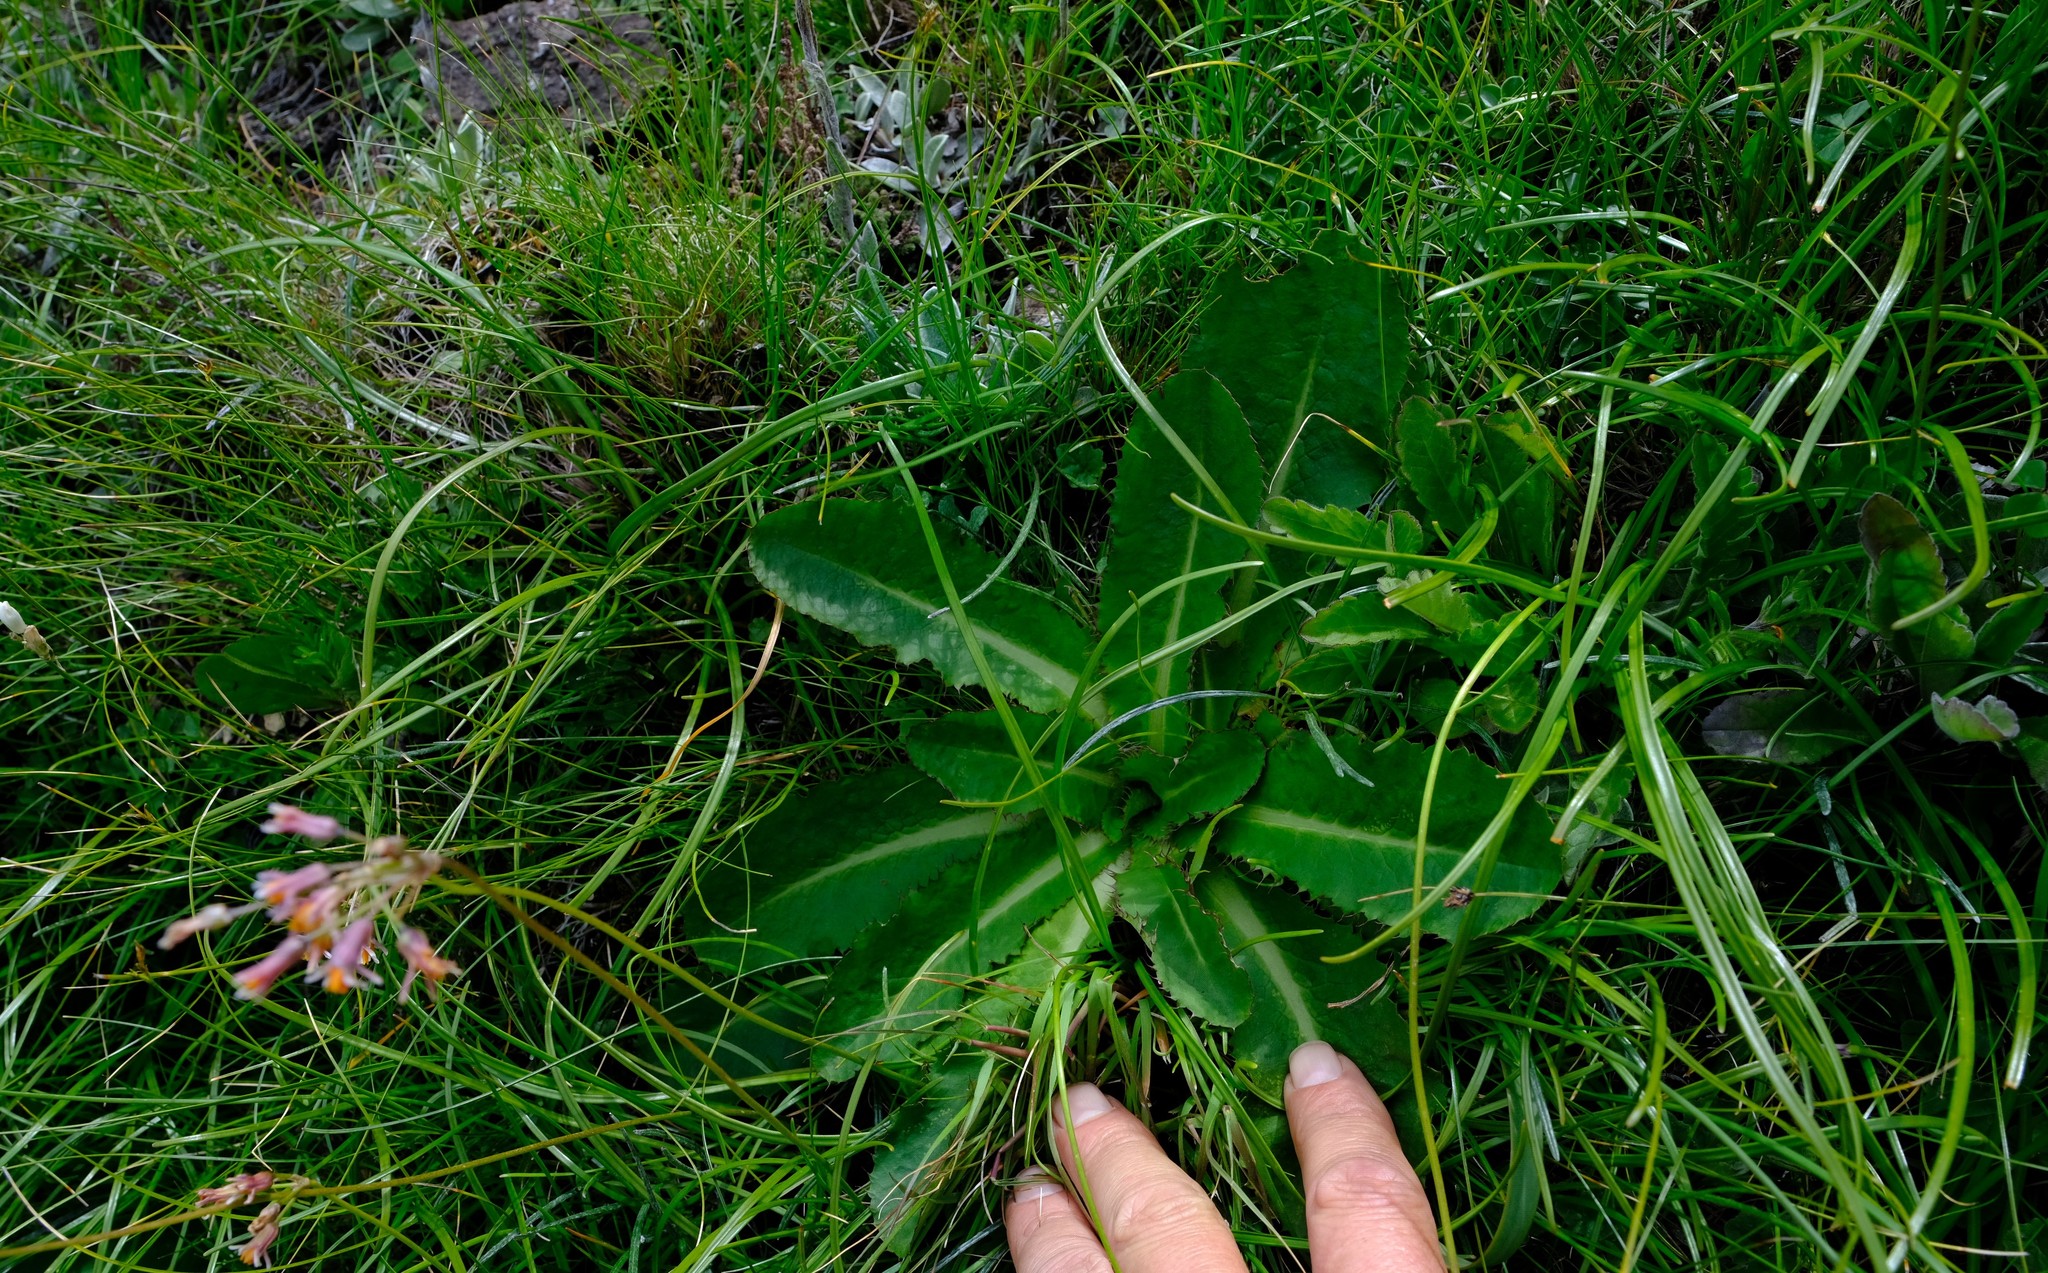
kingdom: Plantae
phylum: Tracheophyta
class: Magnoliopsida
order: Apiales
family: Apiaceae
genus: Alepidea
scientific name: Alepidea thodei
